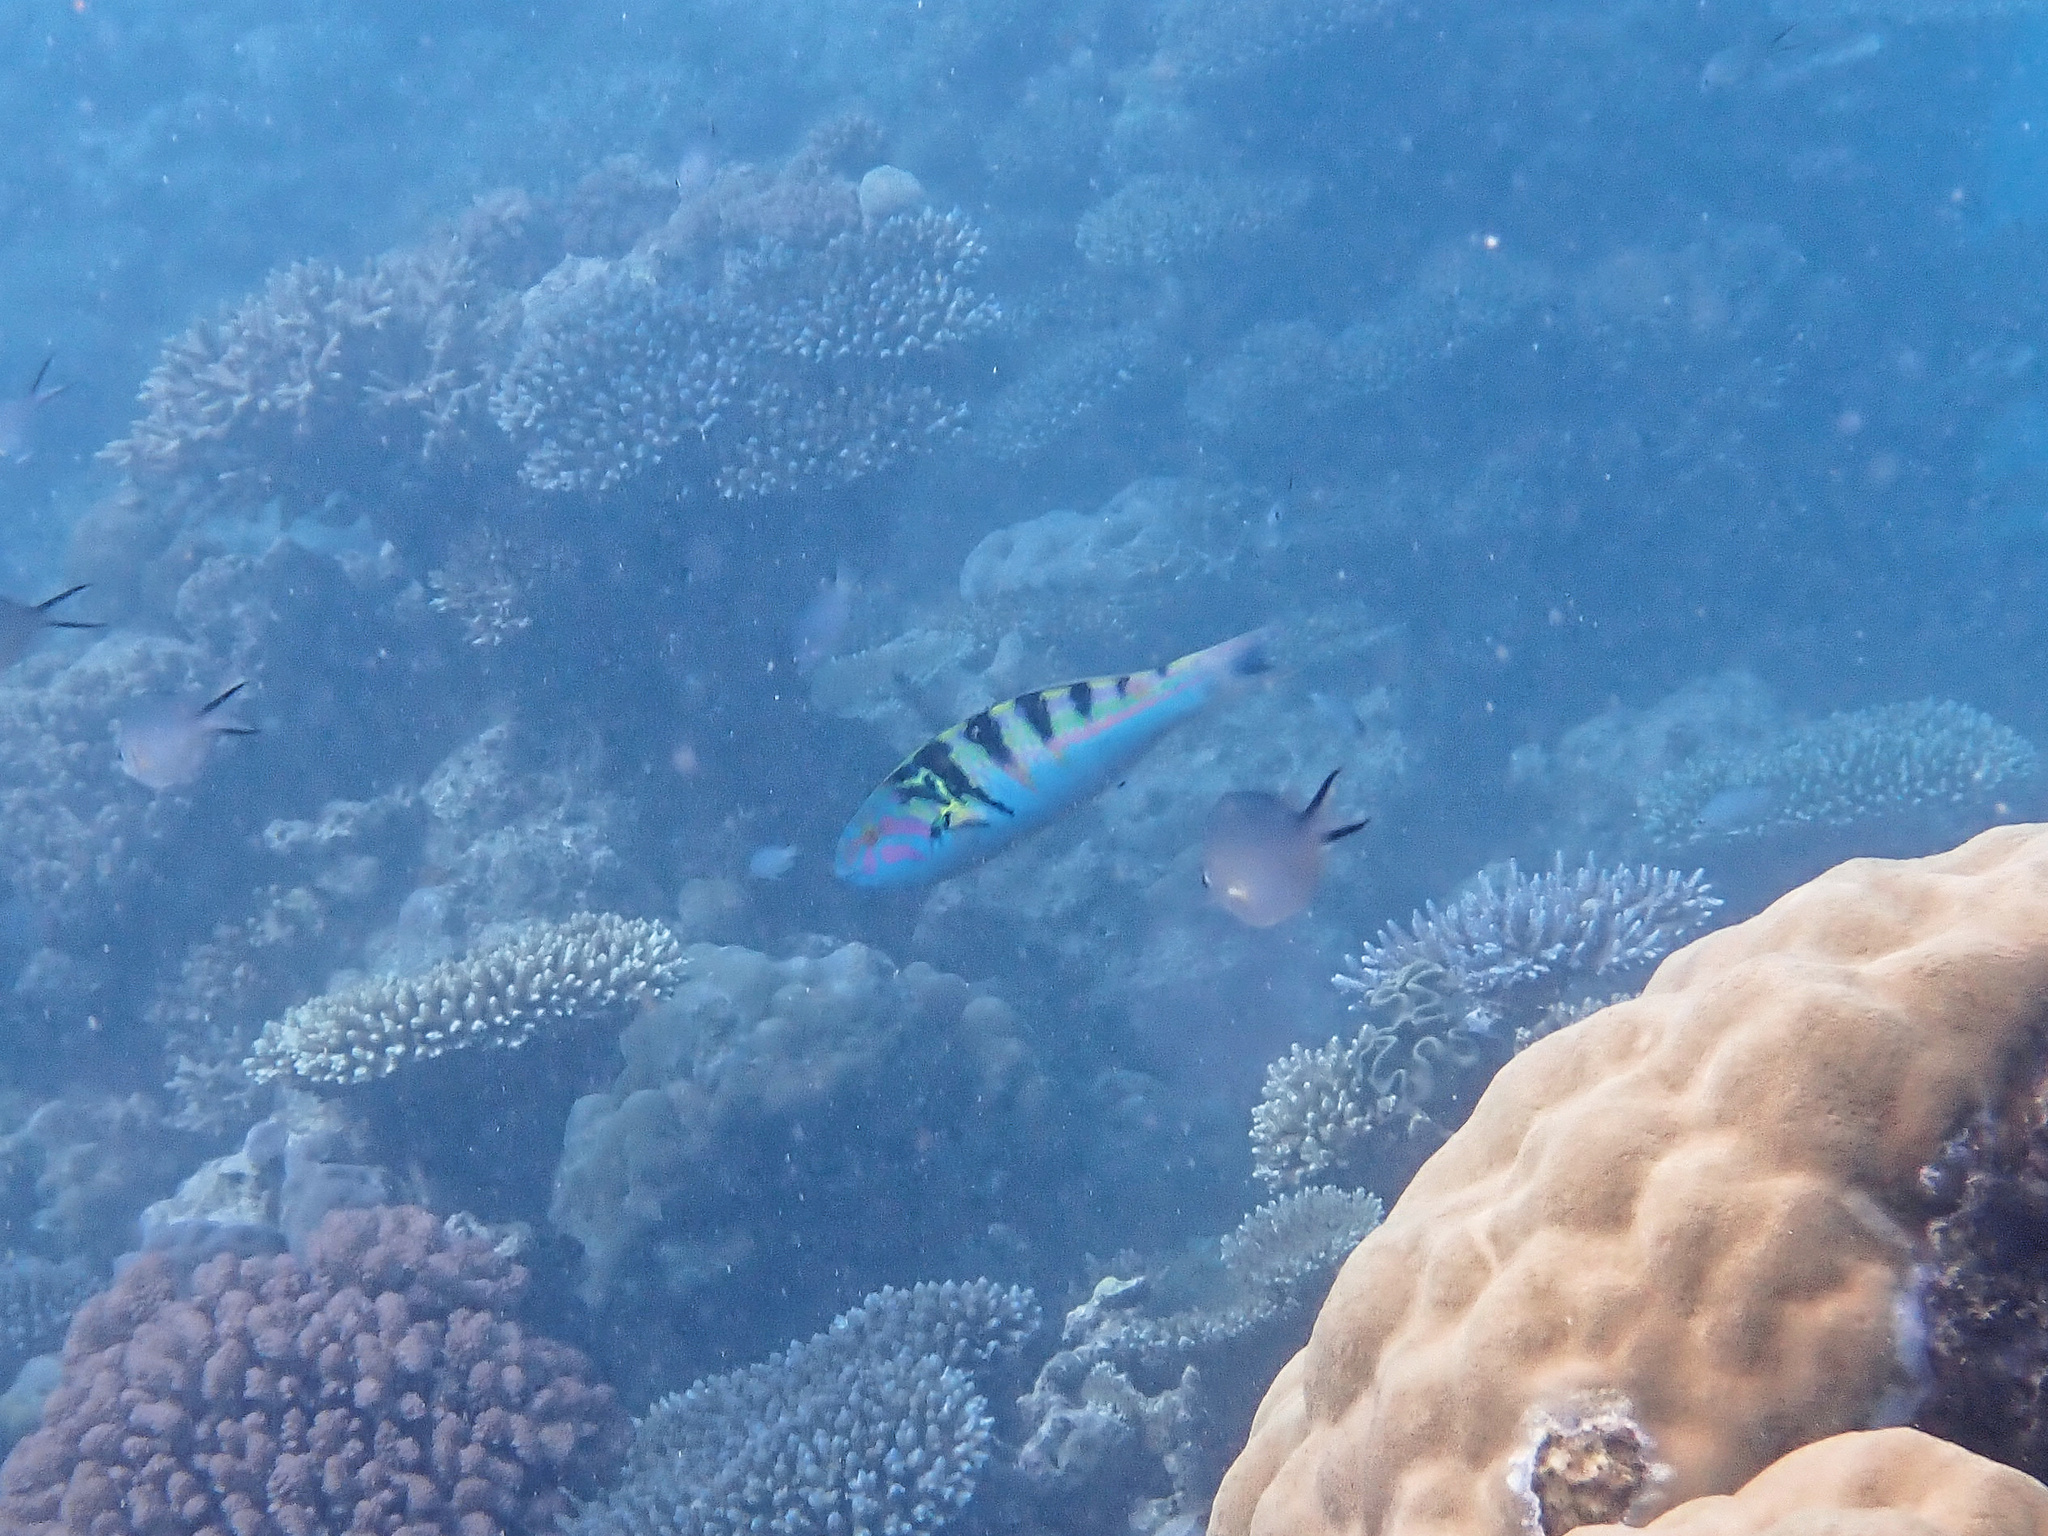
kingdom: Animalia
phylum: Chordata
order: Perciformes
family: Labridae
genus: Thalassoma
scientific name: Thalassoma hardwicke
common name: Sixbar wrasse
